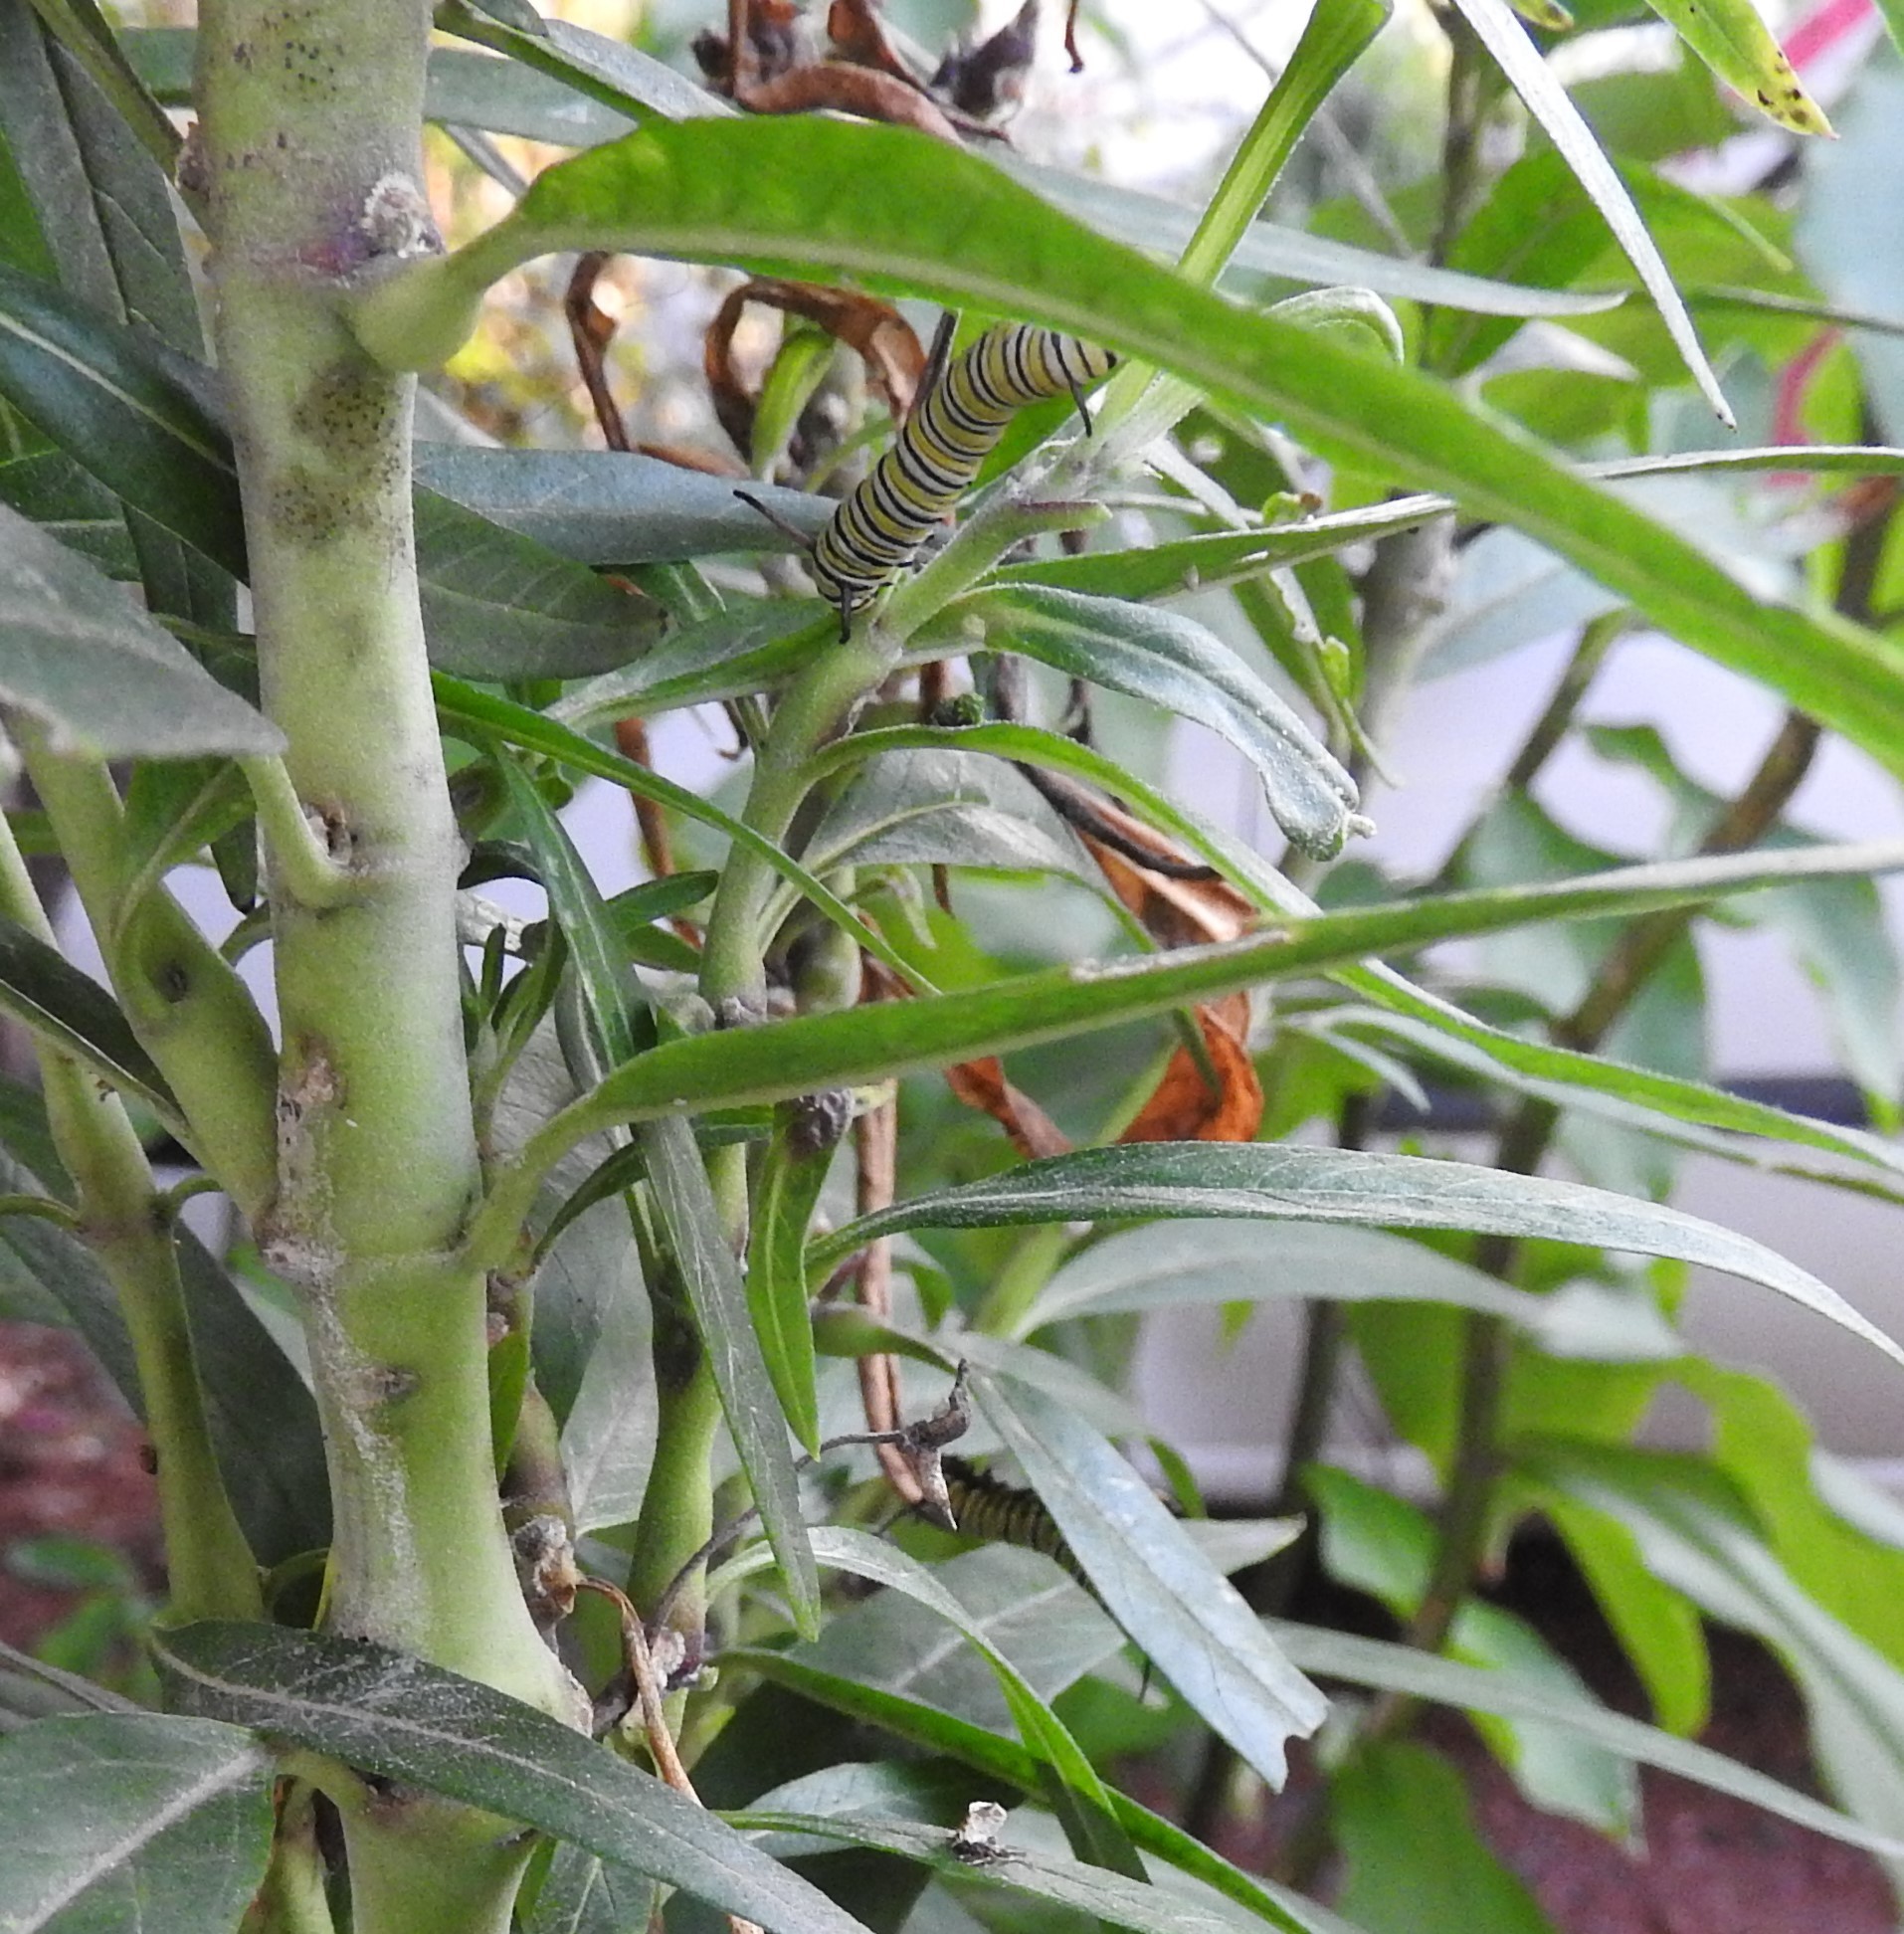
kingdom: Animalia
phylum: Arthropoda
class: Insecta
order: Lepidoptera
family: Nymphalidae
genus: Danaus
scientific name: Danaus plexippus
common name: Monarch
